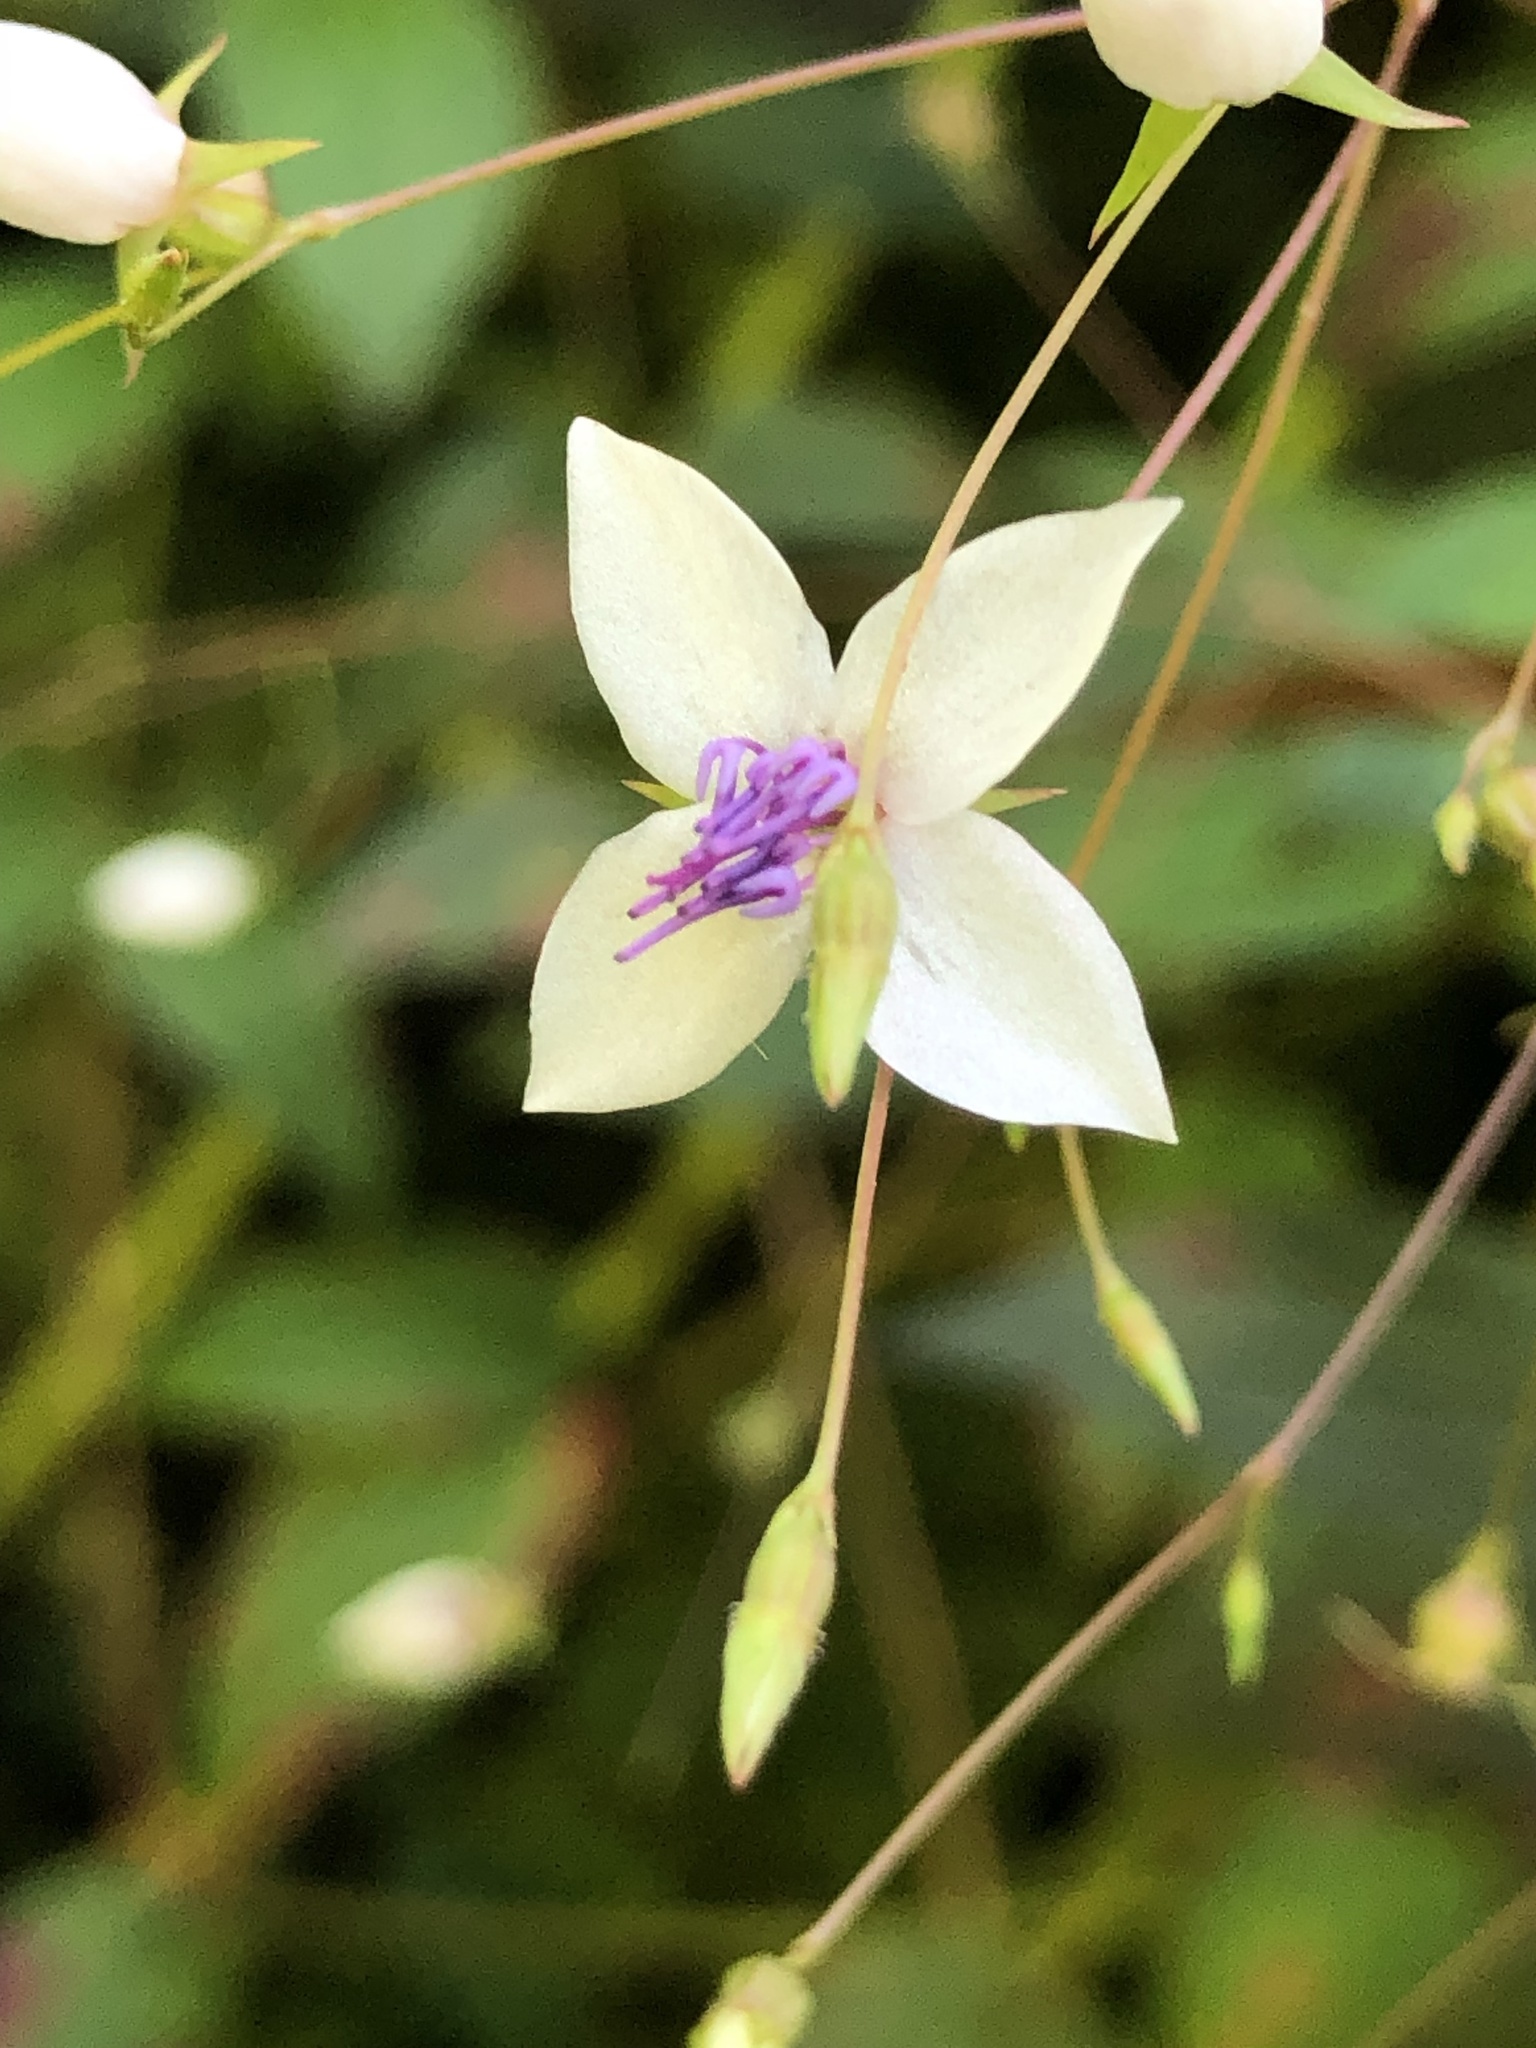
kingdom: Plantae
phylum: Tracheophyta
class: Magnoliopsida
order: Myrtales
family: Melastomataceae
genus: Nepsera
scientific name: Nepsera aquatica
